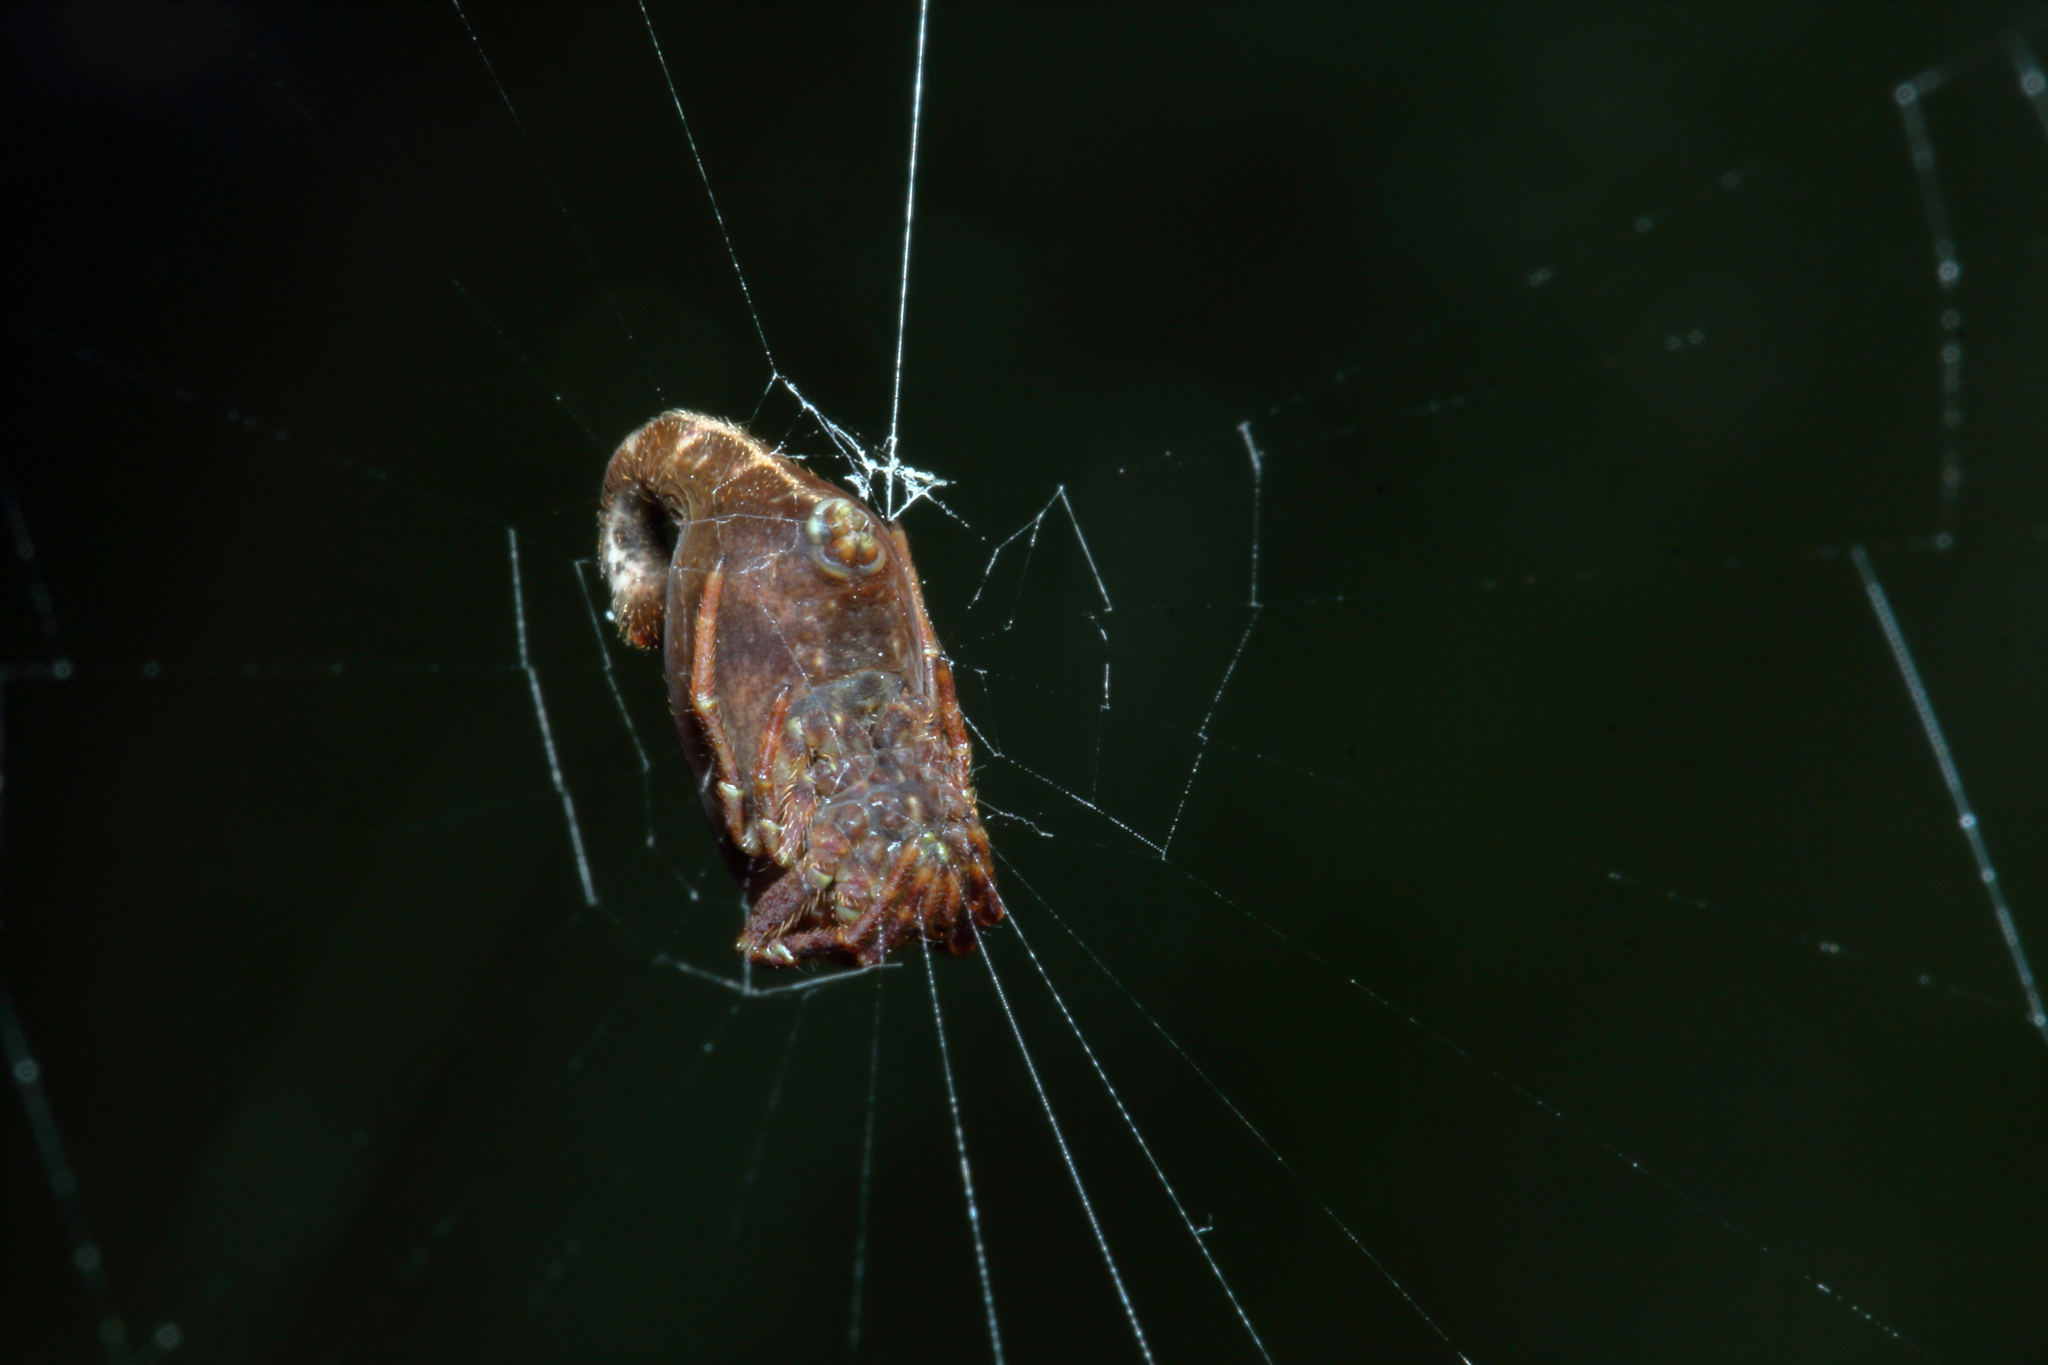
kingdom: Animalia
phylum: Arthropoda
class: Arachnida
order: Araneae
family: Araneidae
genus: Arachnura
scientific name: Arachnura feredayi
